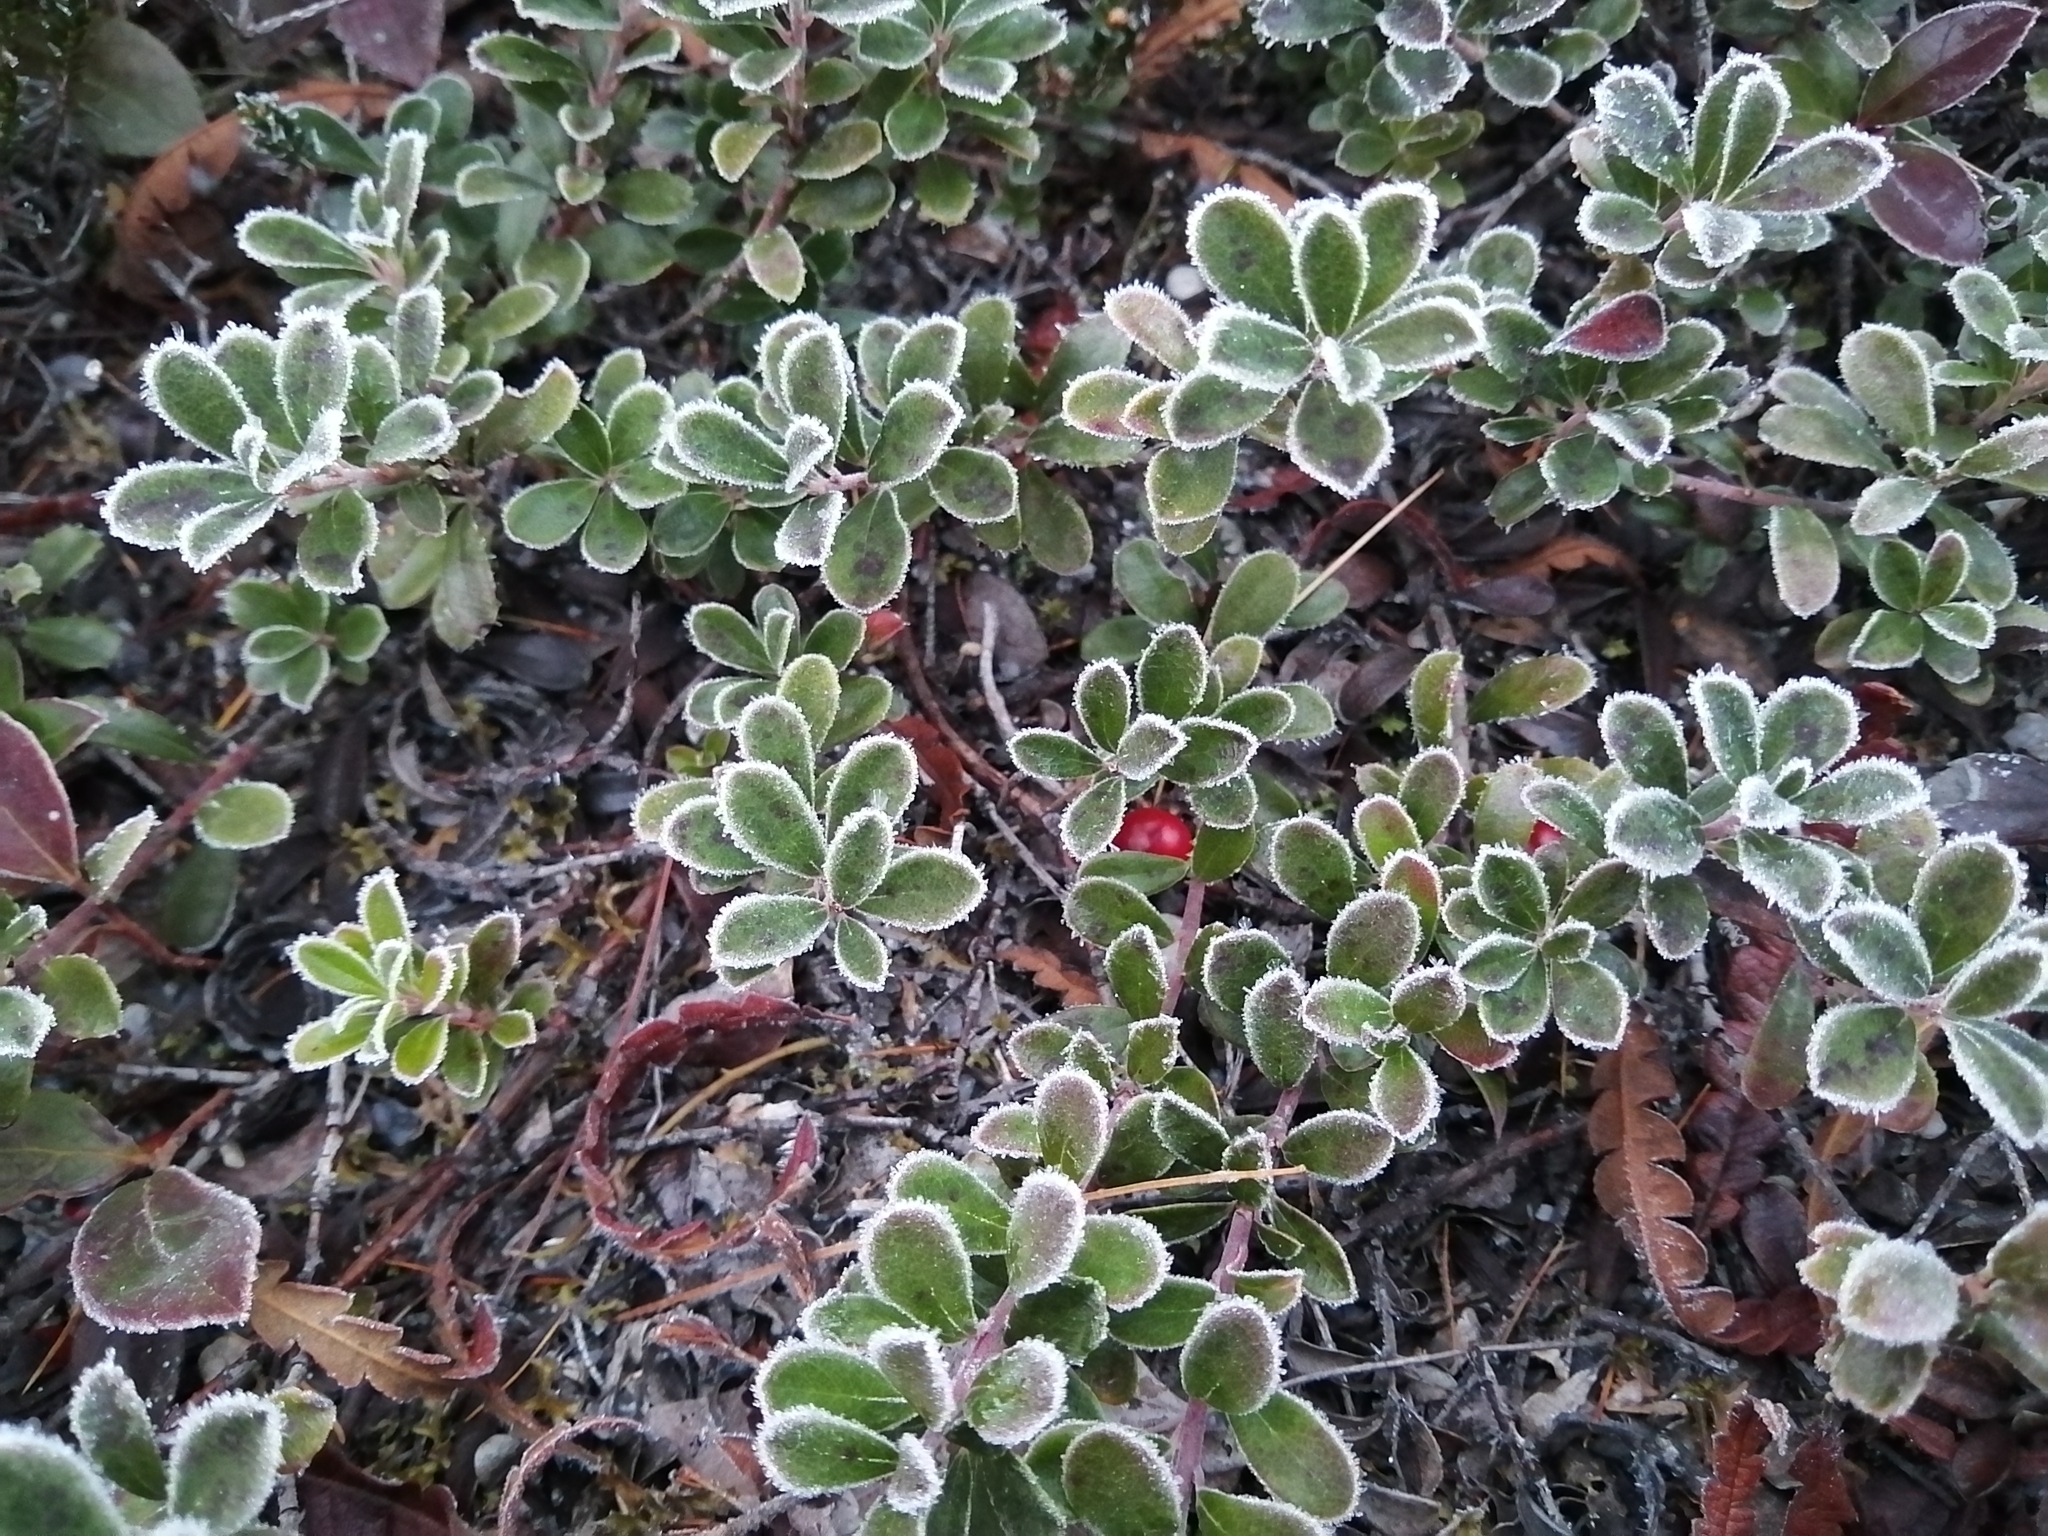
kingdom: Plantae
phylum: Tracheophyta
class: Magnoliopsida
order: Ericales
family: Ericaceae
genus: Arctostaphylos
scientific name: Arctostaphylos uva-ursi
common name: Bearberry
